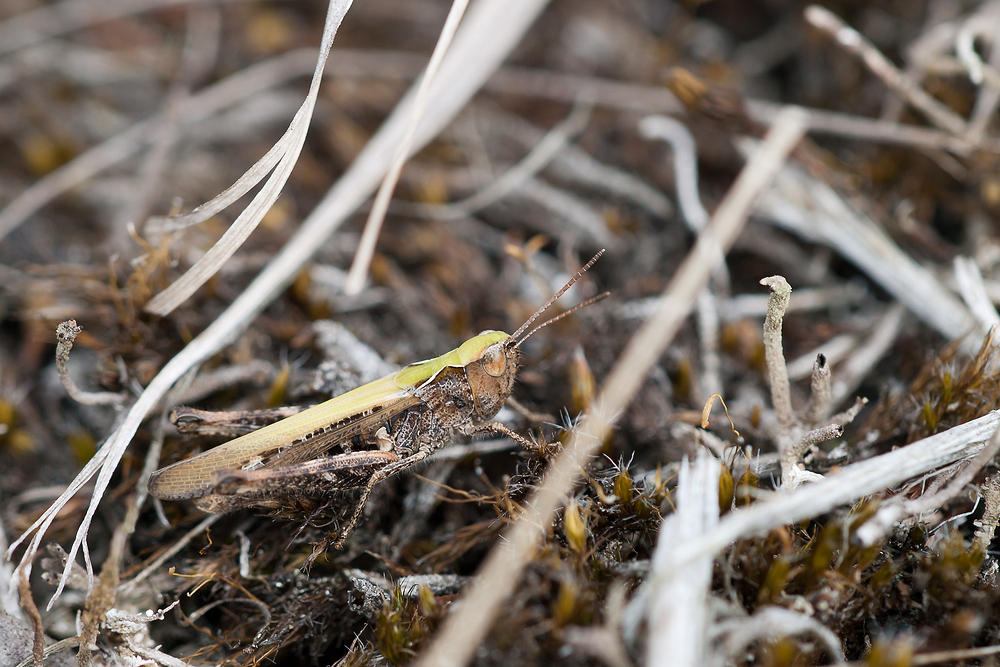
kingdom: Animalia
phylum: Arthropoda
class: Insecta
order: Orthoptera
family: Acrididae
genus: Myrmeleotettix
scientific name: Myrmeleotettix maculatus
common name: Mottled grasshopper
